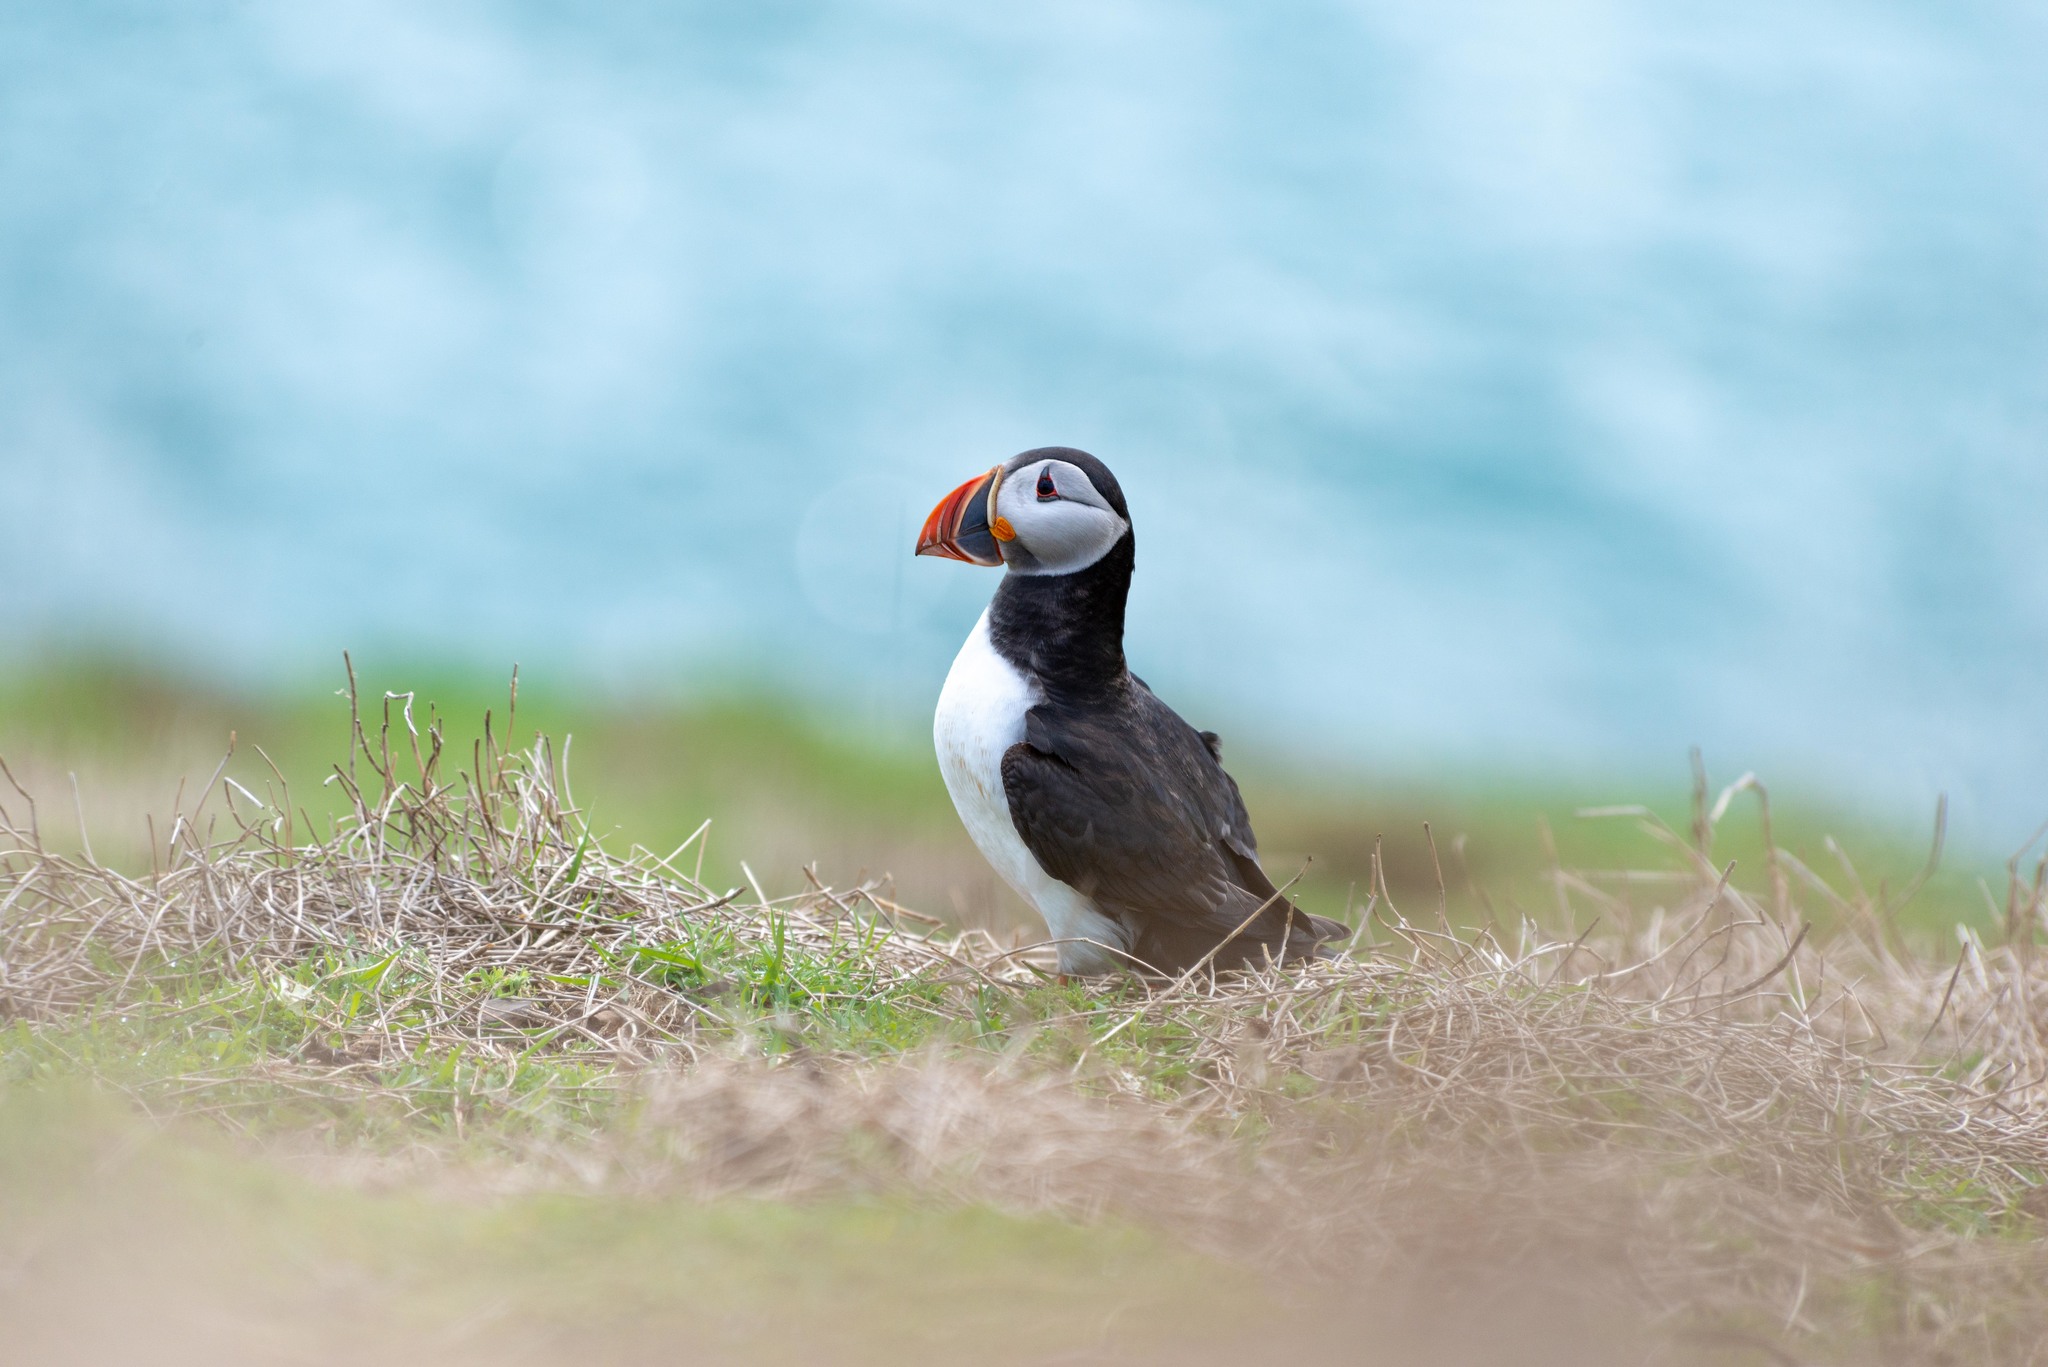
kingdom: Animalia
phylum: Chordata
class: Aves
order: Charadriiformes
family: Alcidae
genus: Fratercula
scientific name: Fratercula arctica
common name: Atlantic puffin
